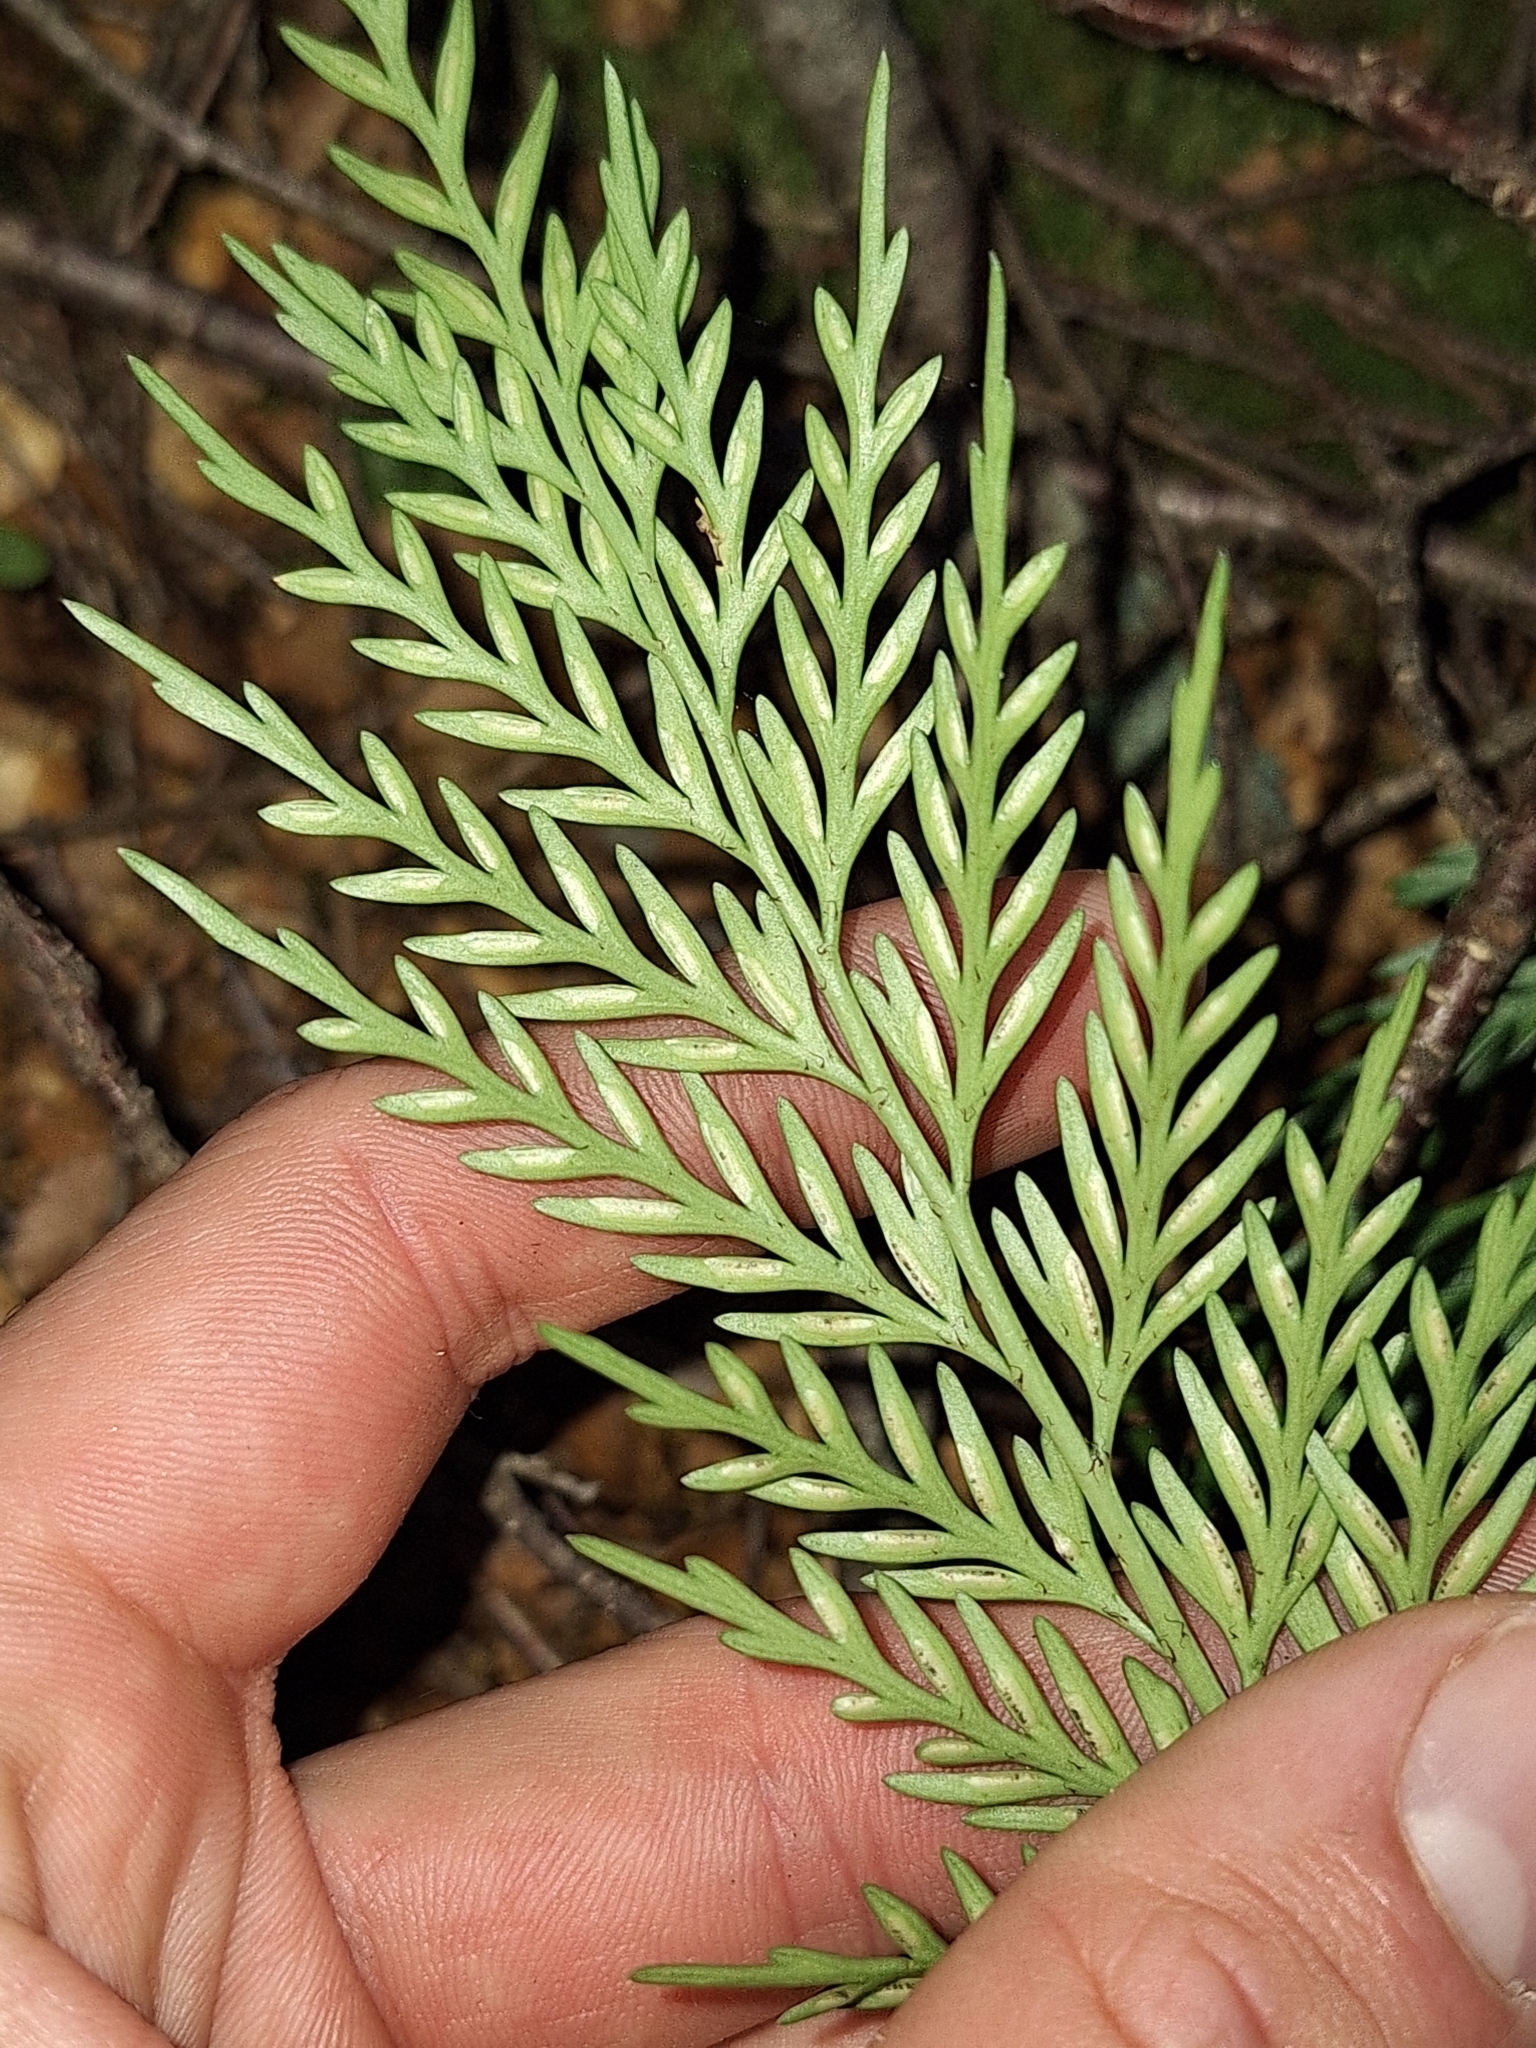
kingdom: Plantae
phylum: Tracheophyta
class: Polypodiopsida
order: Polypodiales
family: Aspleniaceae
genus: Asplenium
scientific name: Asplenium appendiculatum
